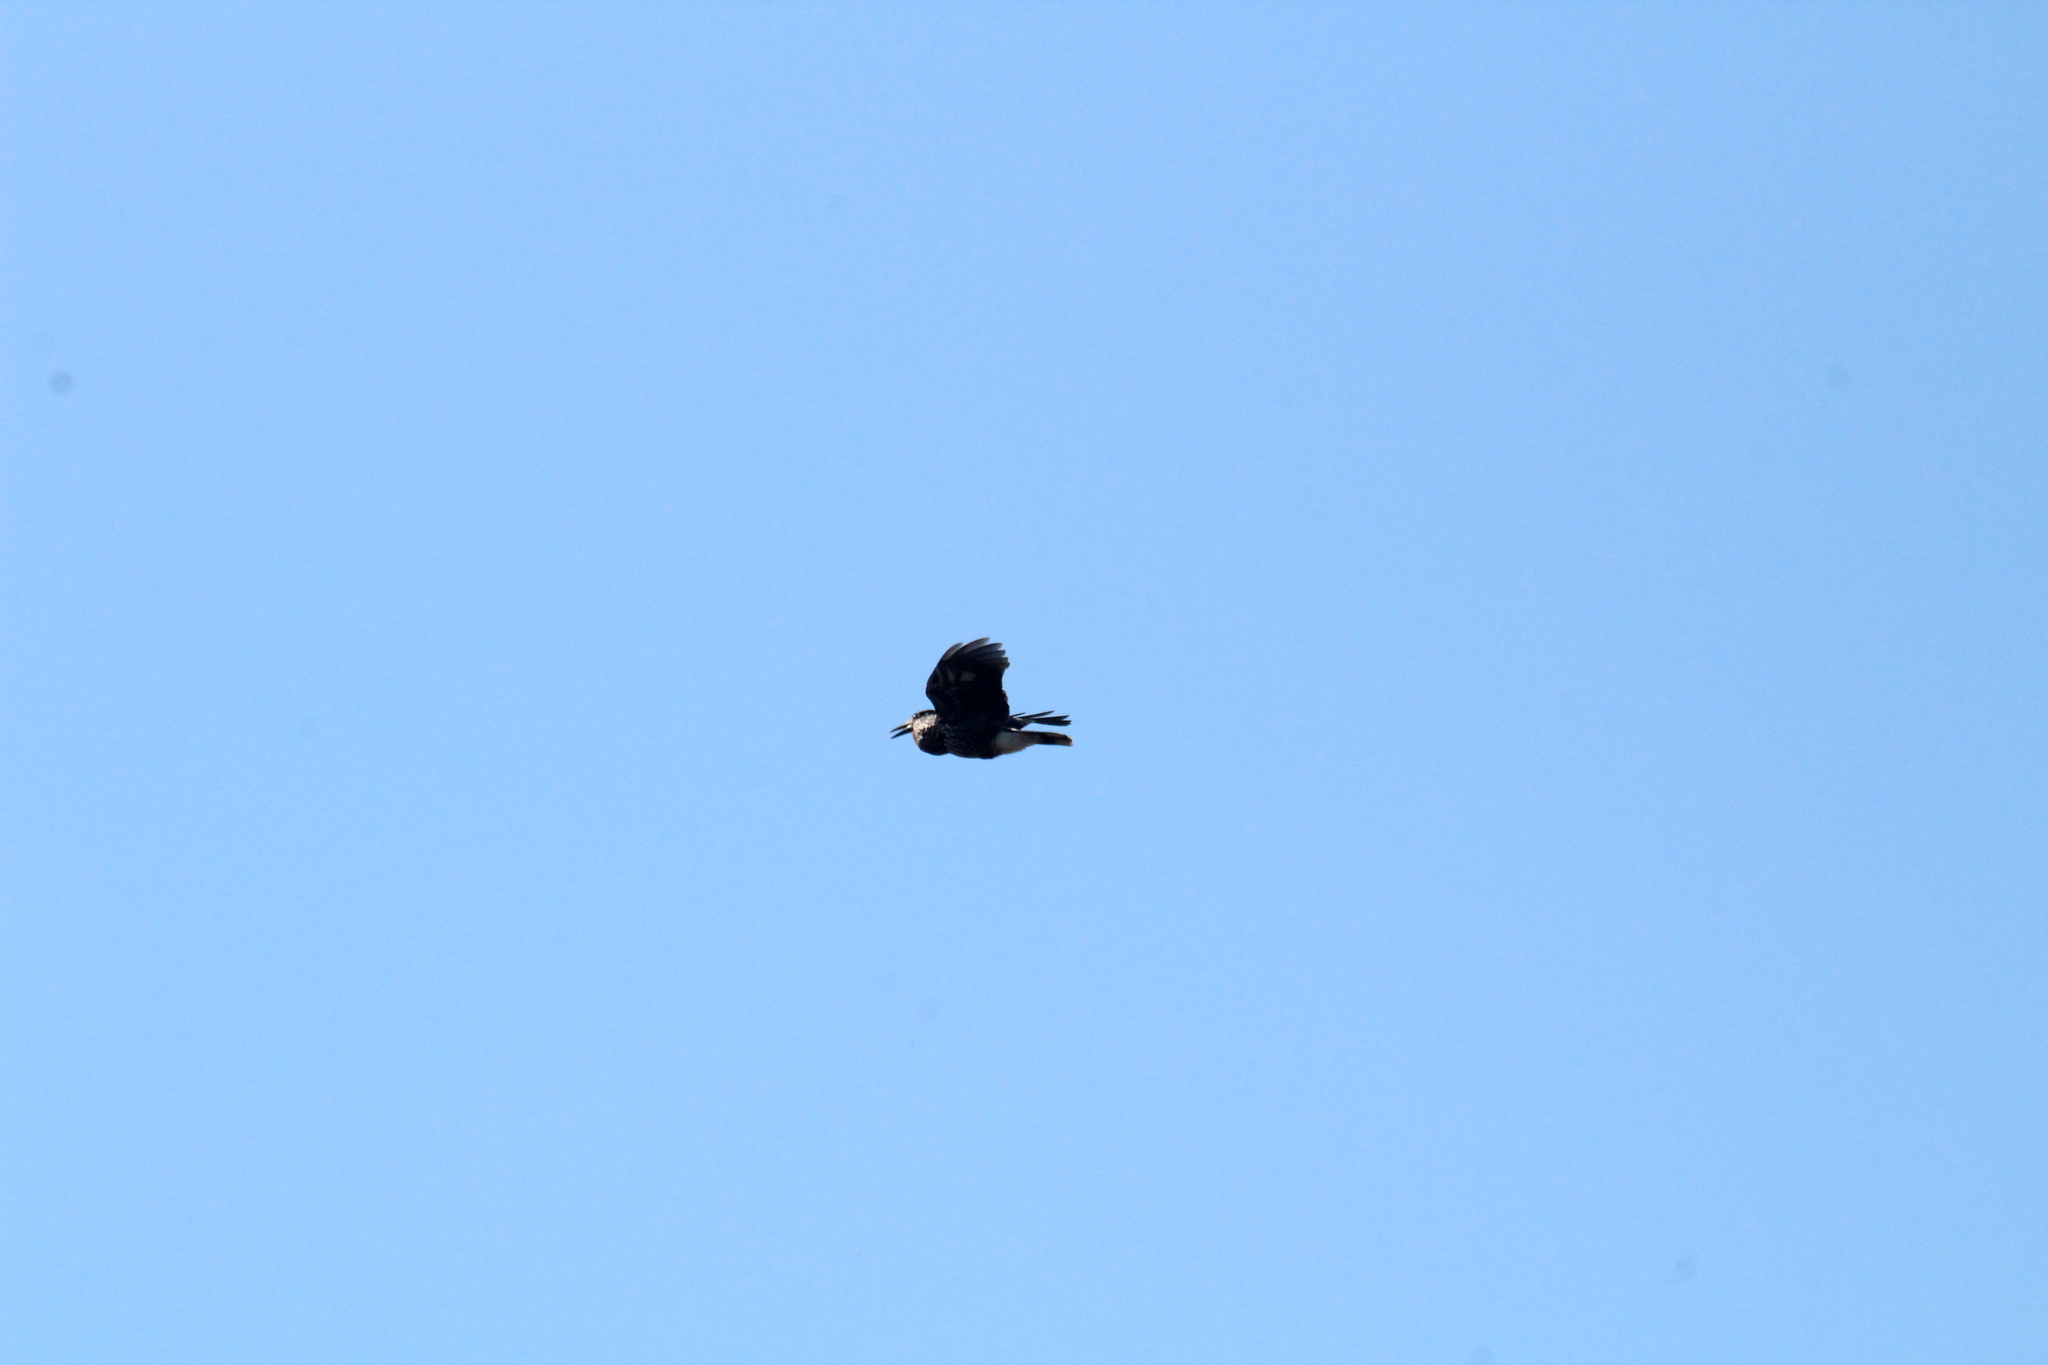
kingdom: Animalia
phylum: Chordata
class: Aves
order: Passeriformes
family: Corvidae
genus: Nucifraga
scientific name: Nucifraga caryocatactes
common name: Spotted nutcracker
